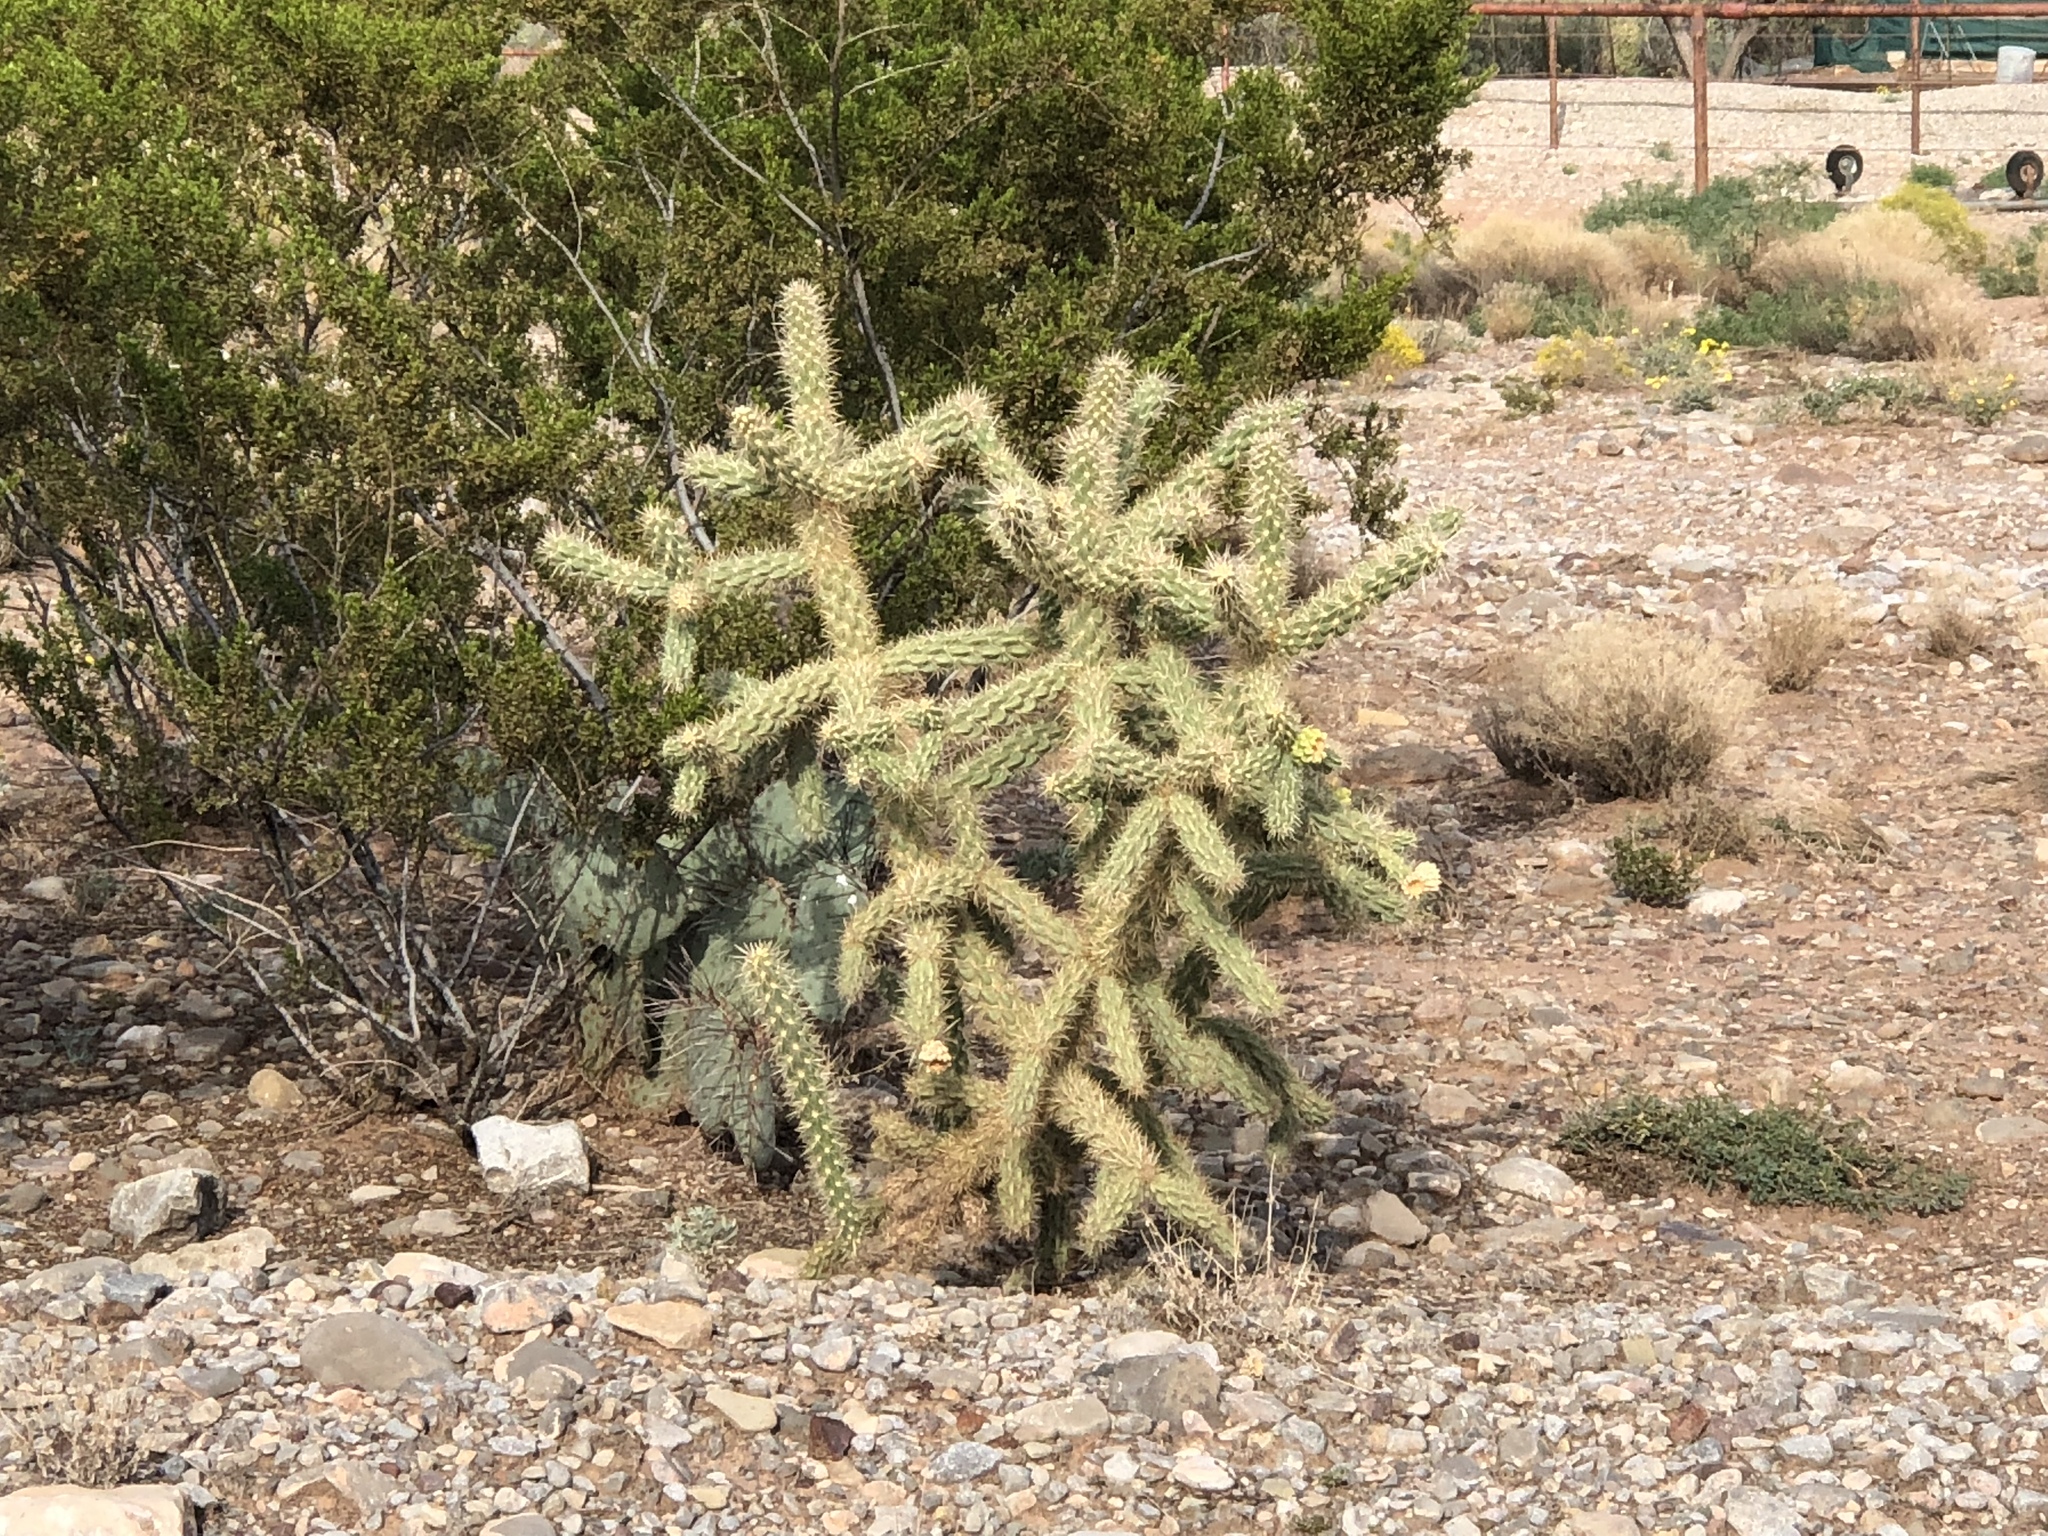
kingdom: Plantae
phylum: Tracheophyta
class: Magnoliopsida
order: Caryophyllales
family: Cactaceae
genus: Cylindropuntia
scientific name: Cylindropuntia imbricata
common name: Candelabrum cactus
